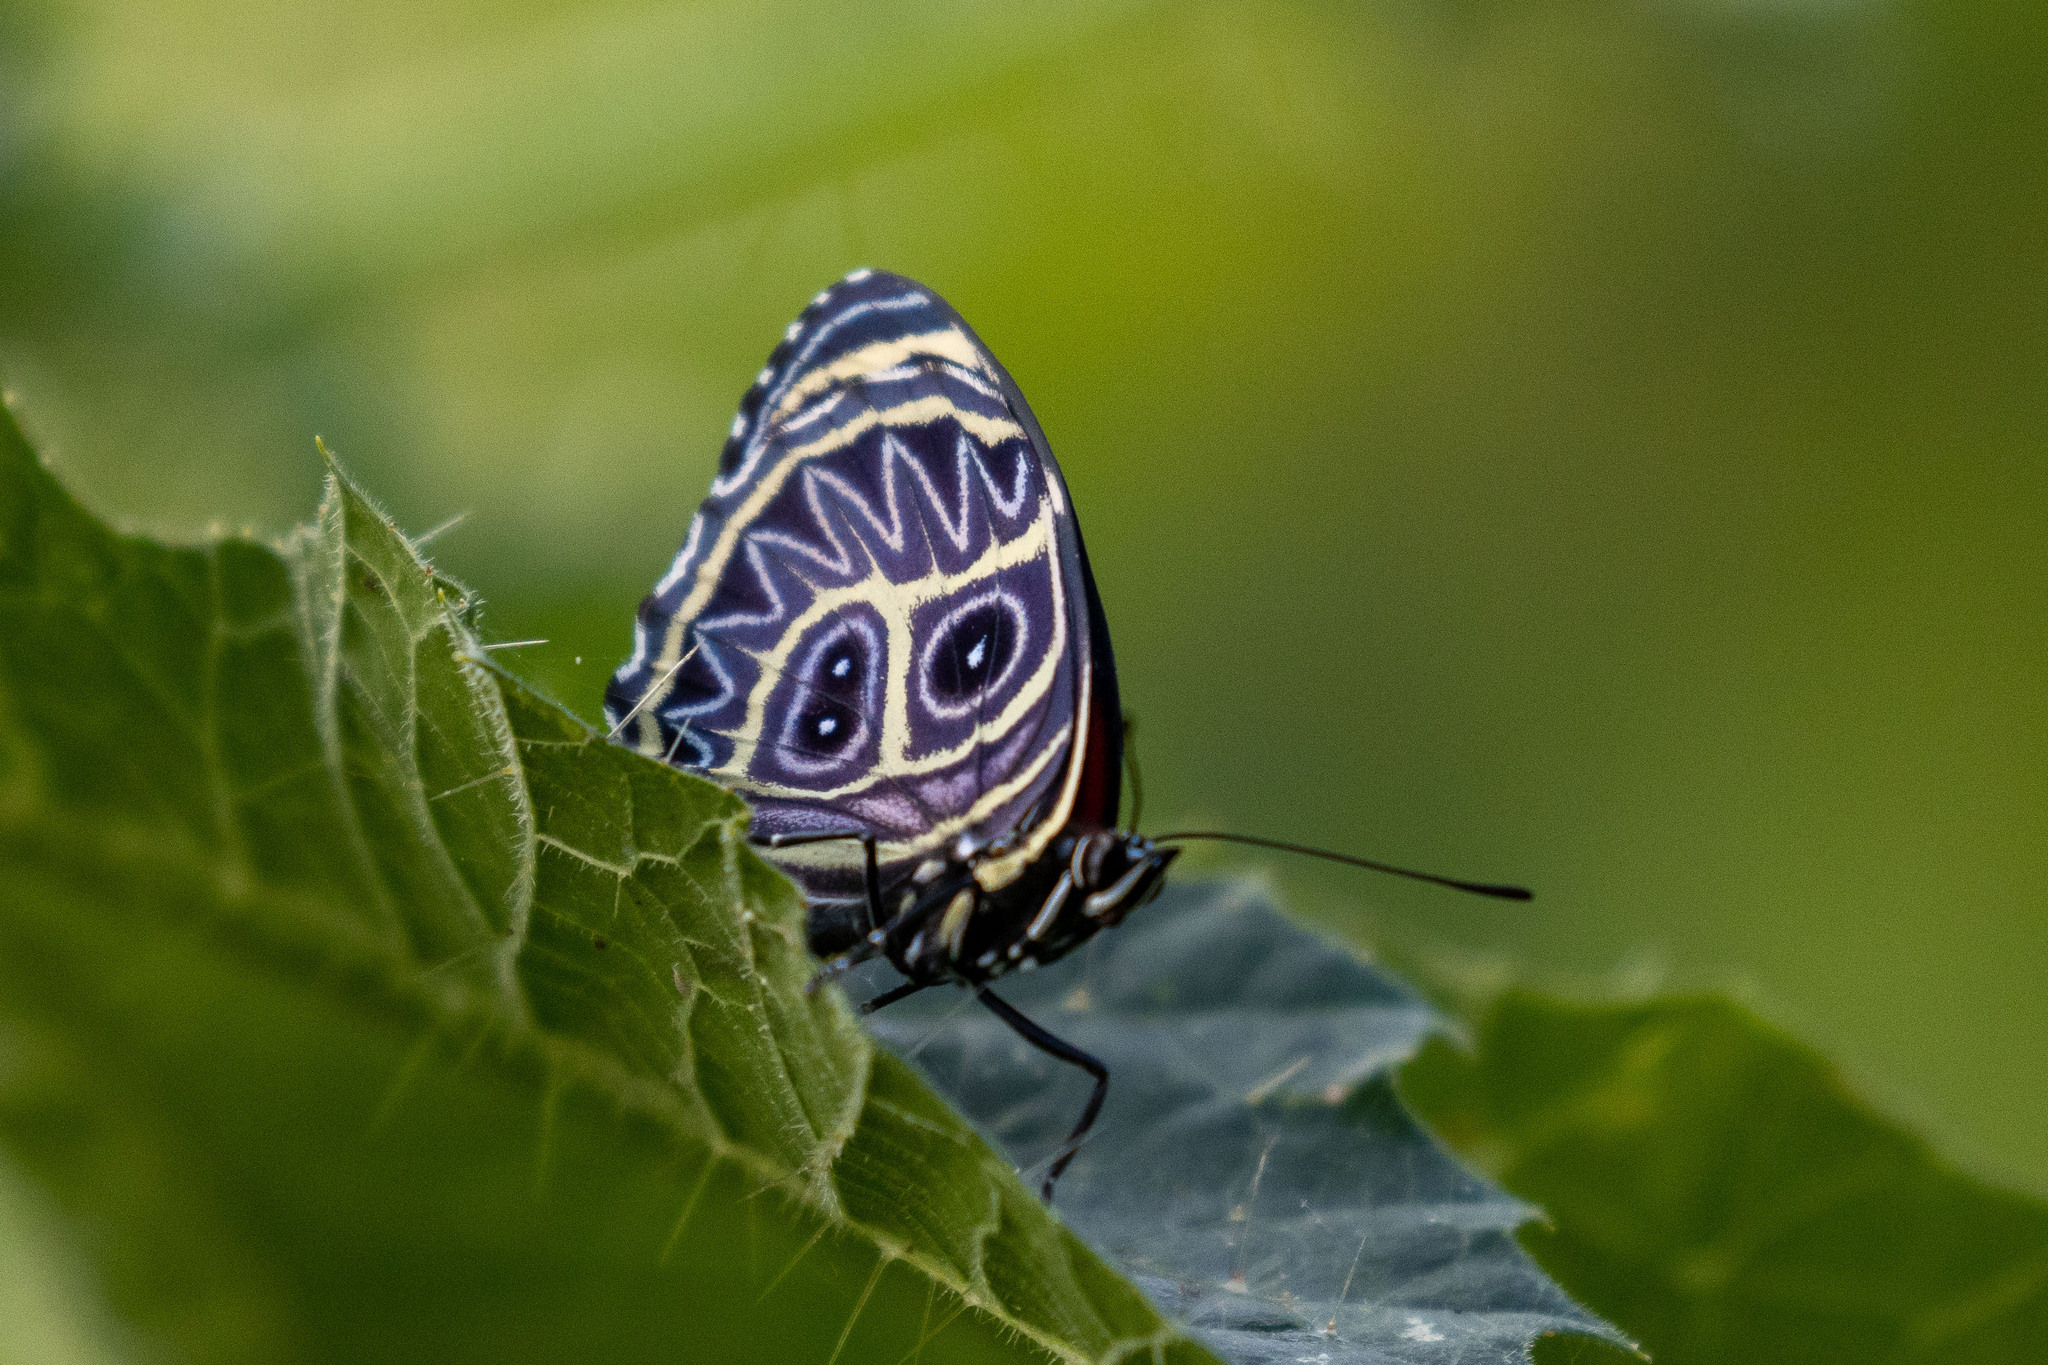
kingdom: Animalia
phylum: Arthropoda
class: Insecta
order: Lepidoptera
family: Nymphalidae
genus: Catagramma
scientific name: Catagramma Callicore sorana
